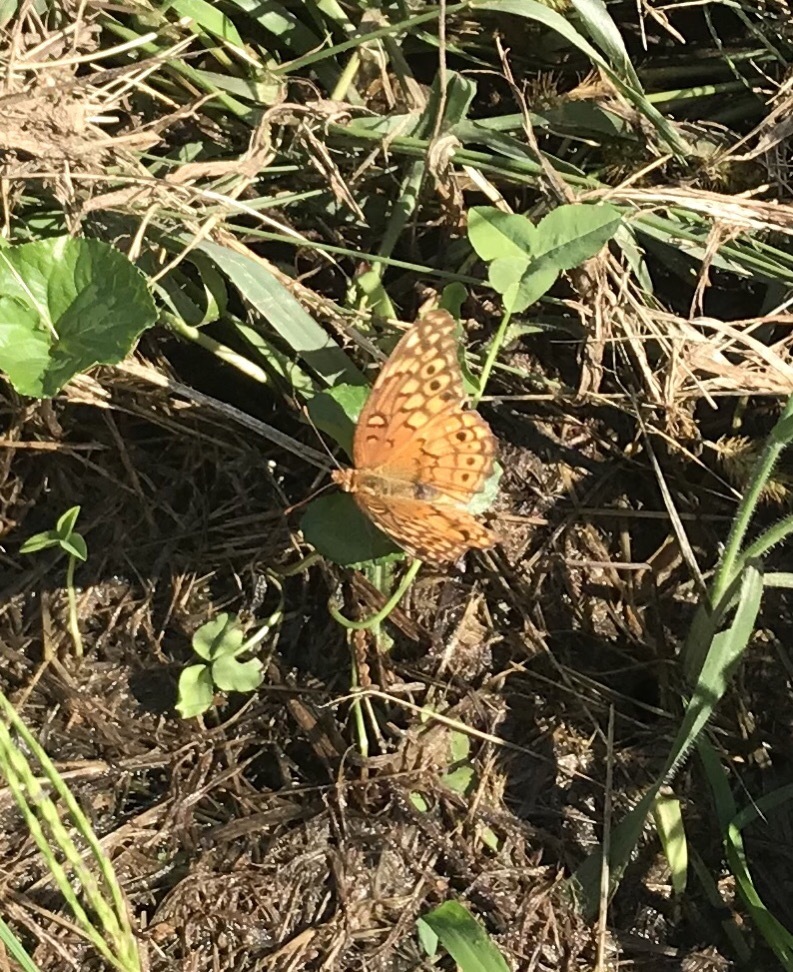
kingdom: Animalia
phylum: Arthropoda
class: Insecta
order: Lepidoptera
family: Nymphalidae
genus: Euptoieta
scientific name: Euptoieta claudia
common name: Variegated fritillary
